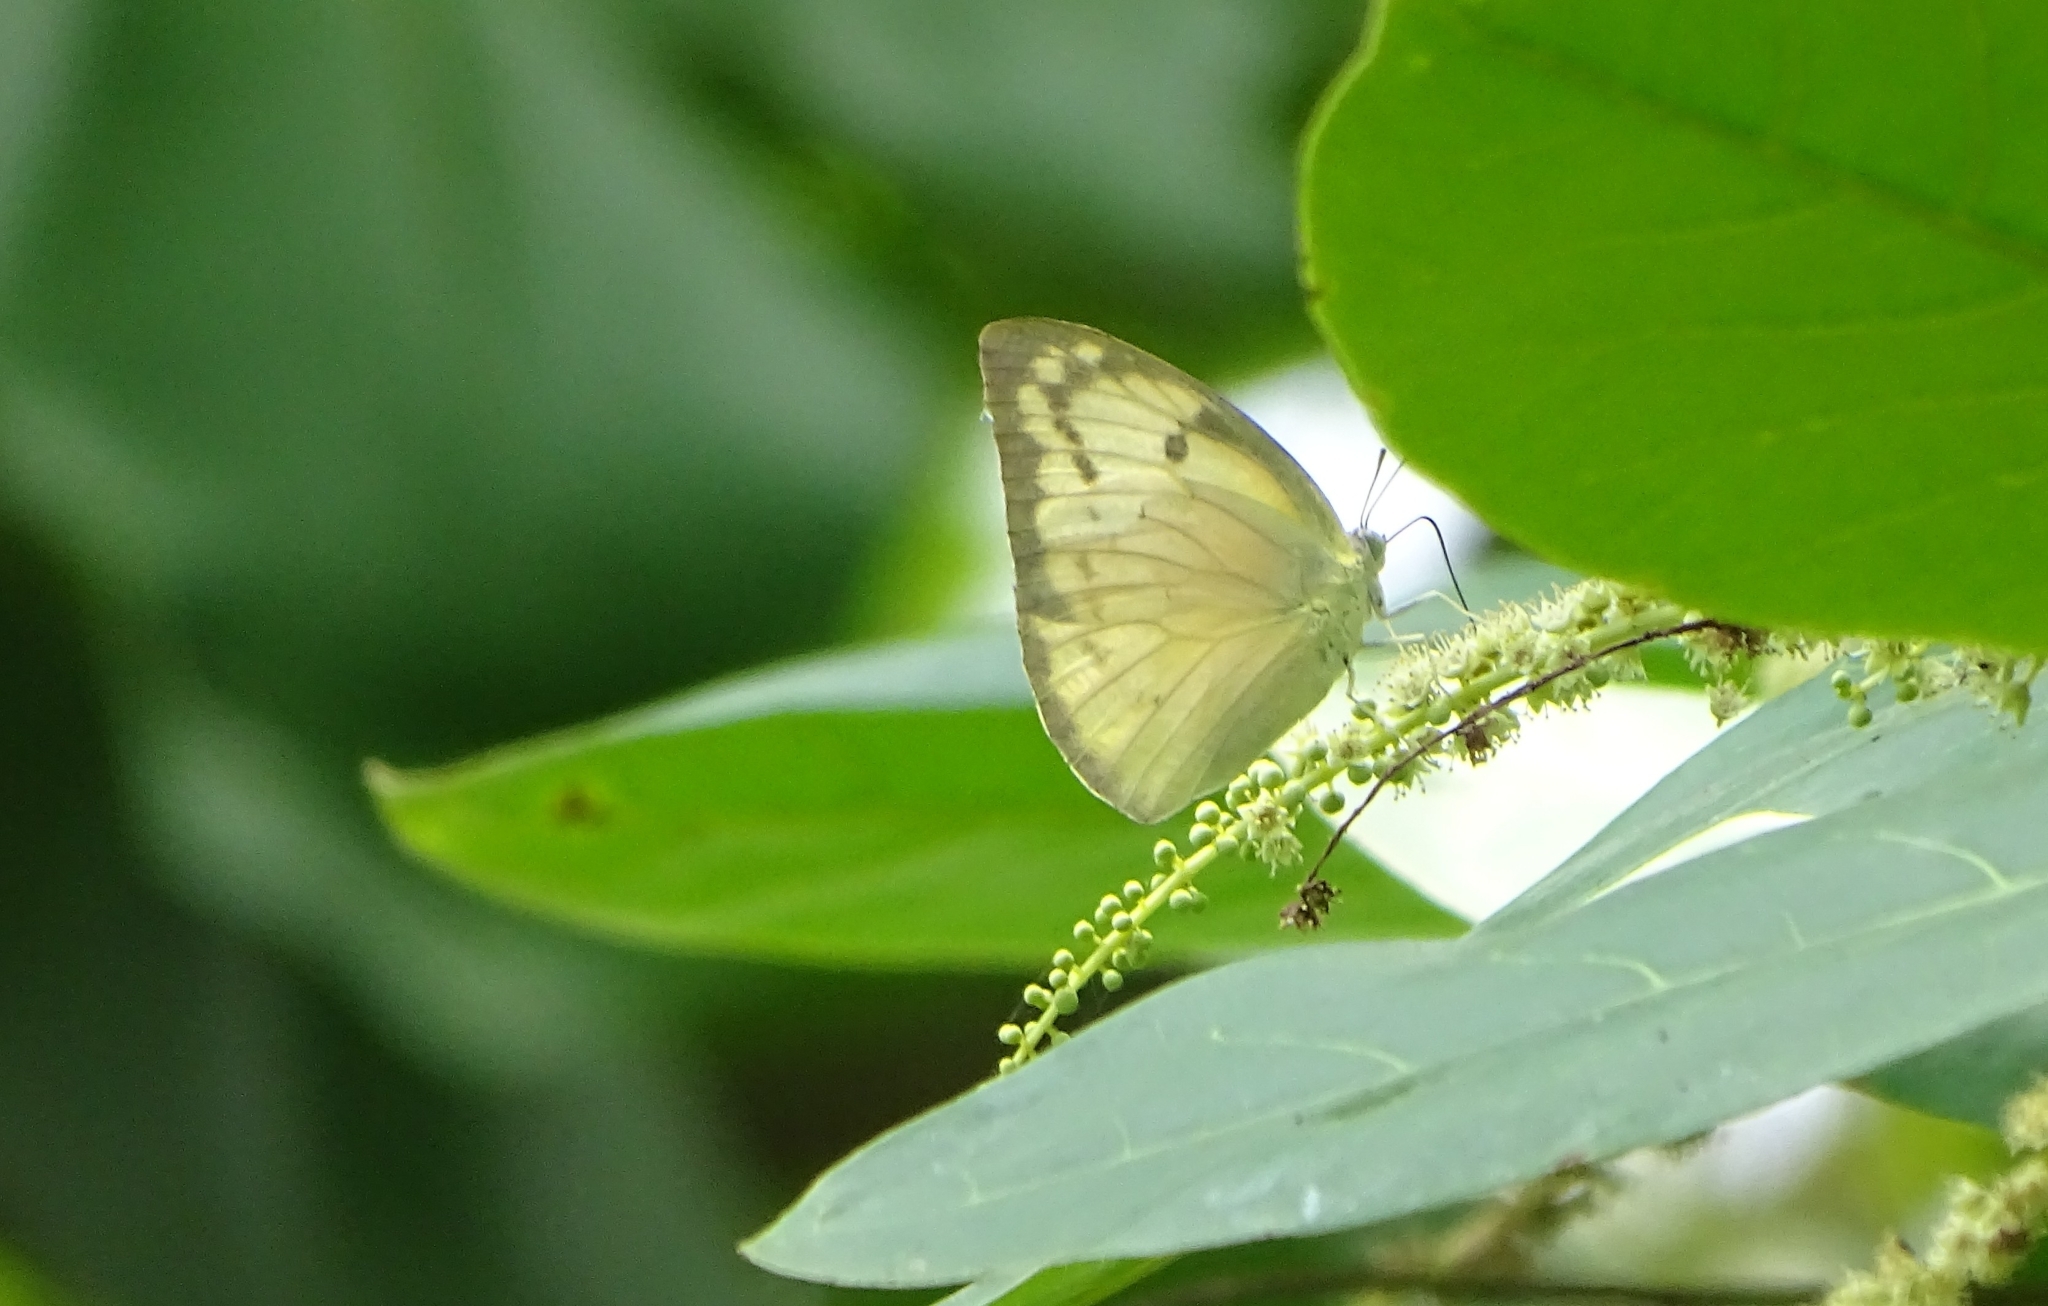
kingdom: Animalia
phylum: Arthropoda
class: Insecta
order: Lepidoptera
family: Pieridae
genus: Catopsilia
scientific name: Catopsilia pomona
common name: Common emigrant
